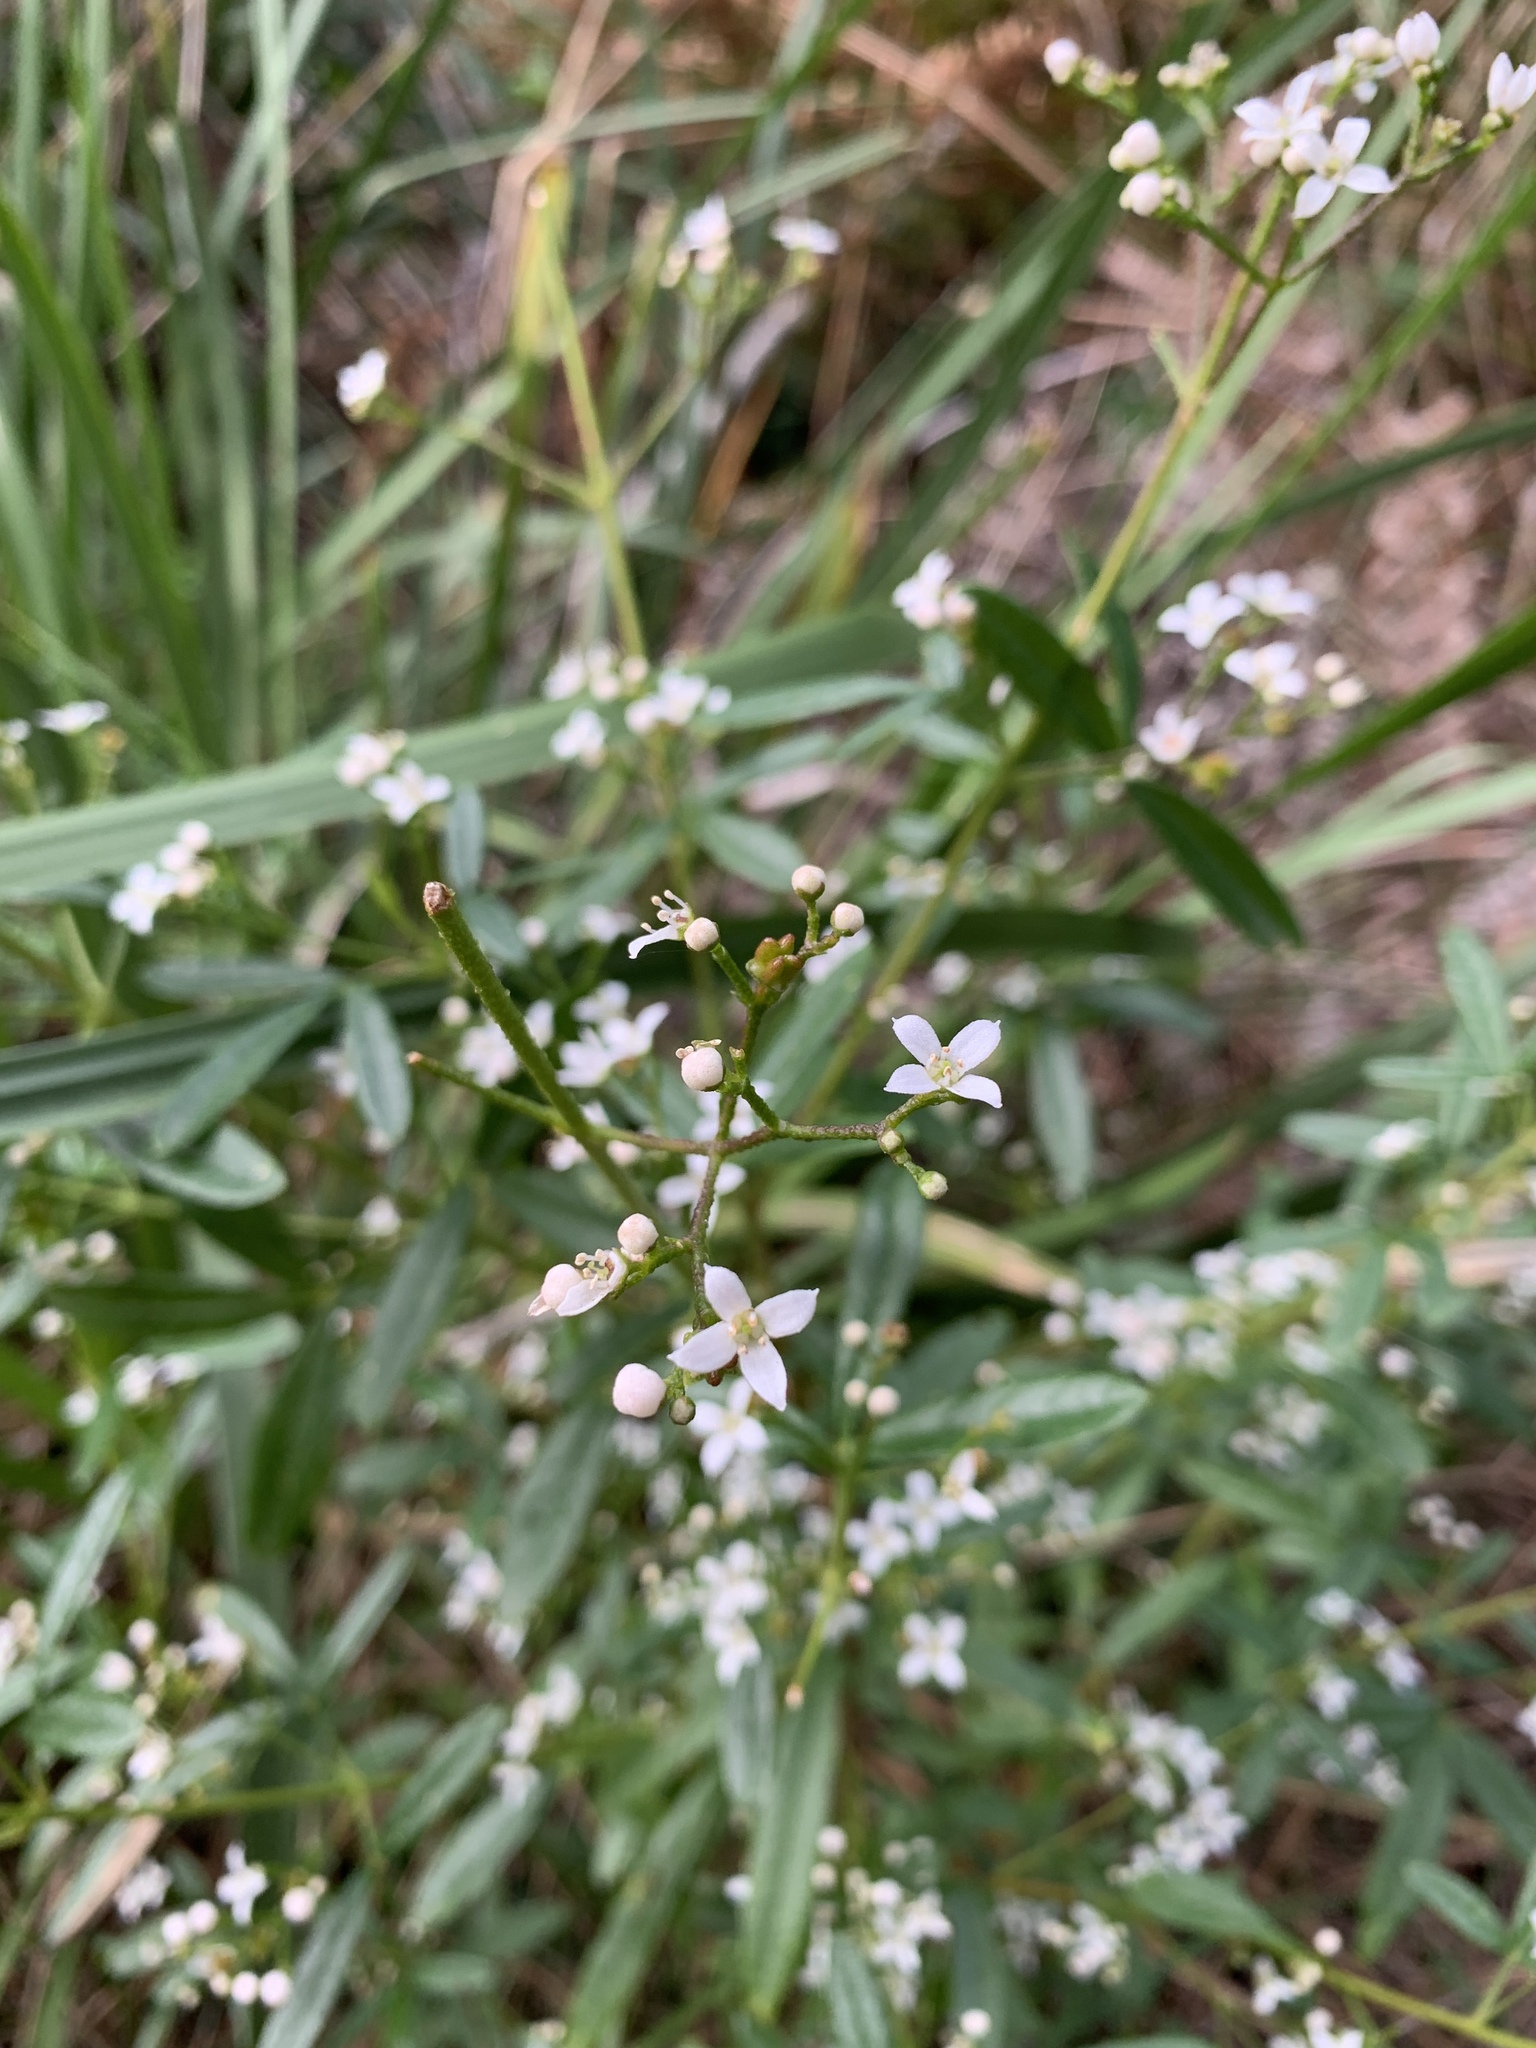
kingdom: Plantae
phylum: Tracheophyta
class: Magnoliopsida
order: Sapindales
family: Rutaceae
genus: Zieria
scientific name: Zieria smithii
